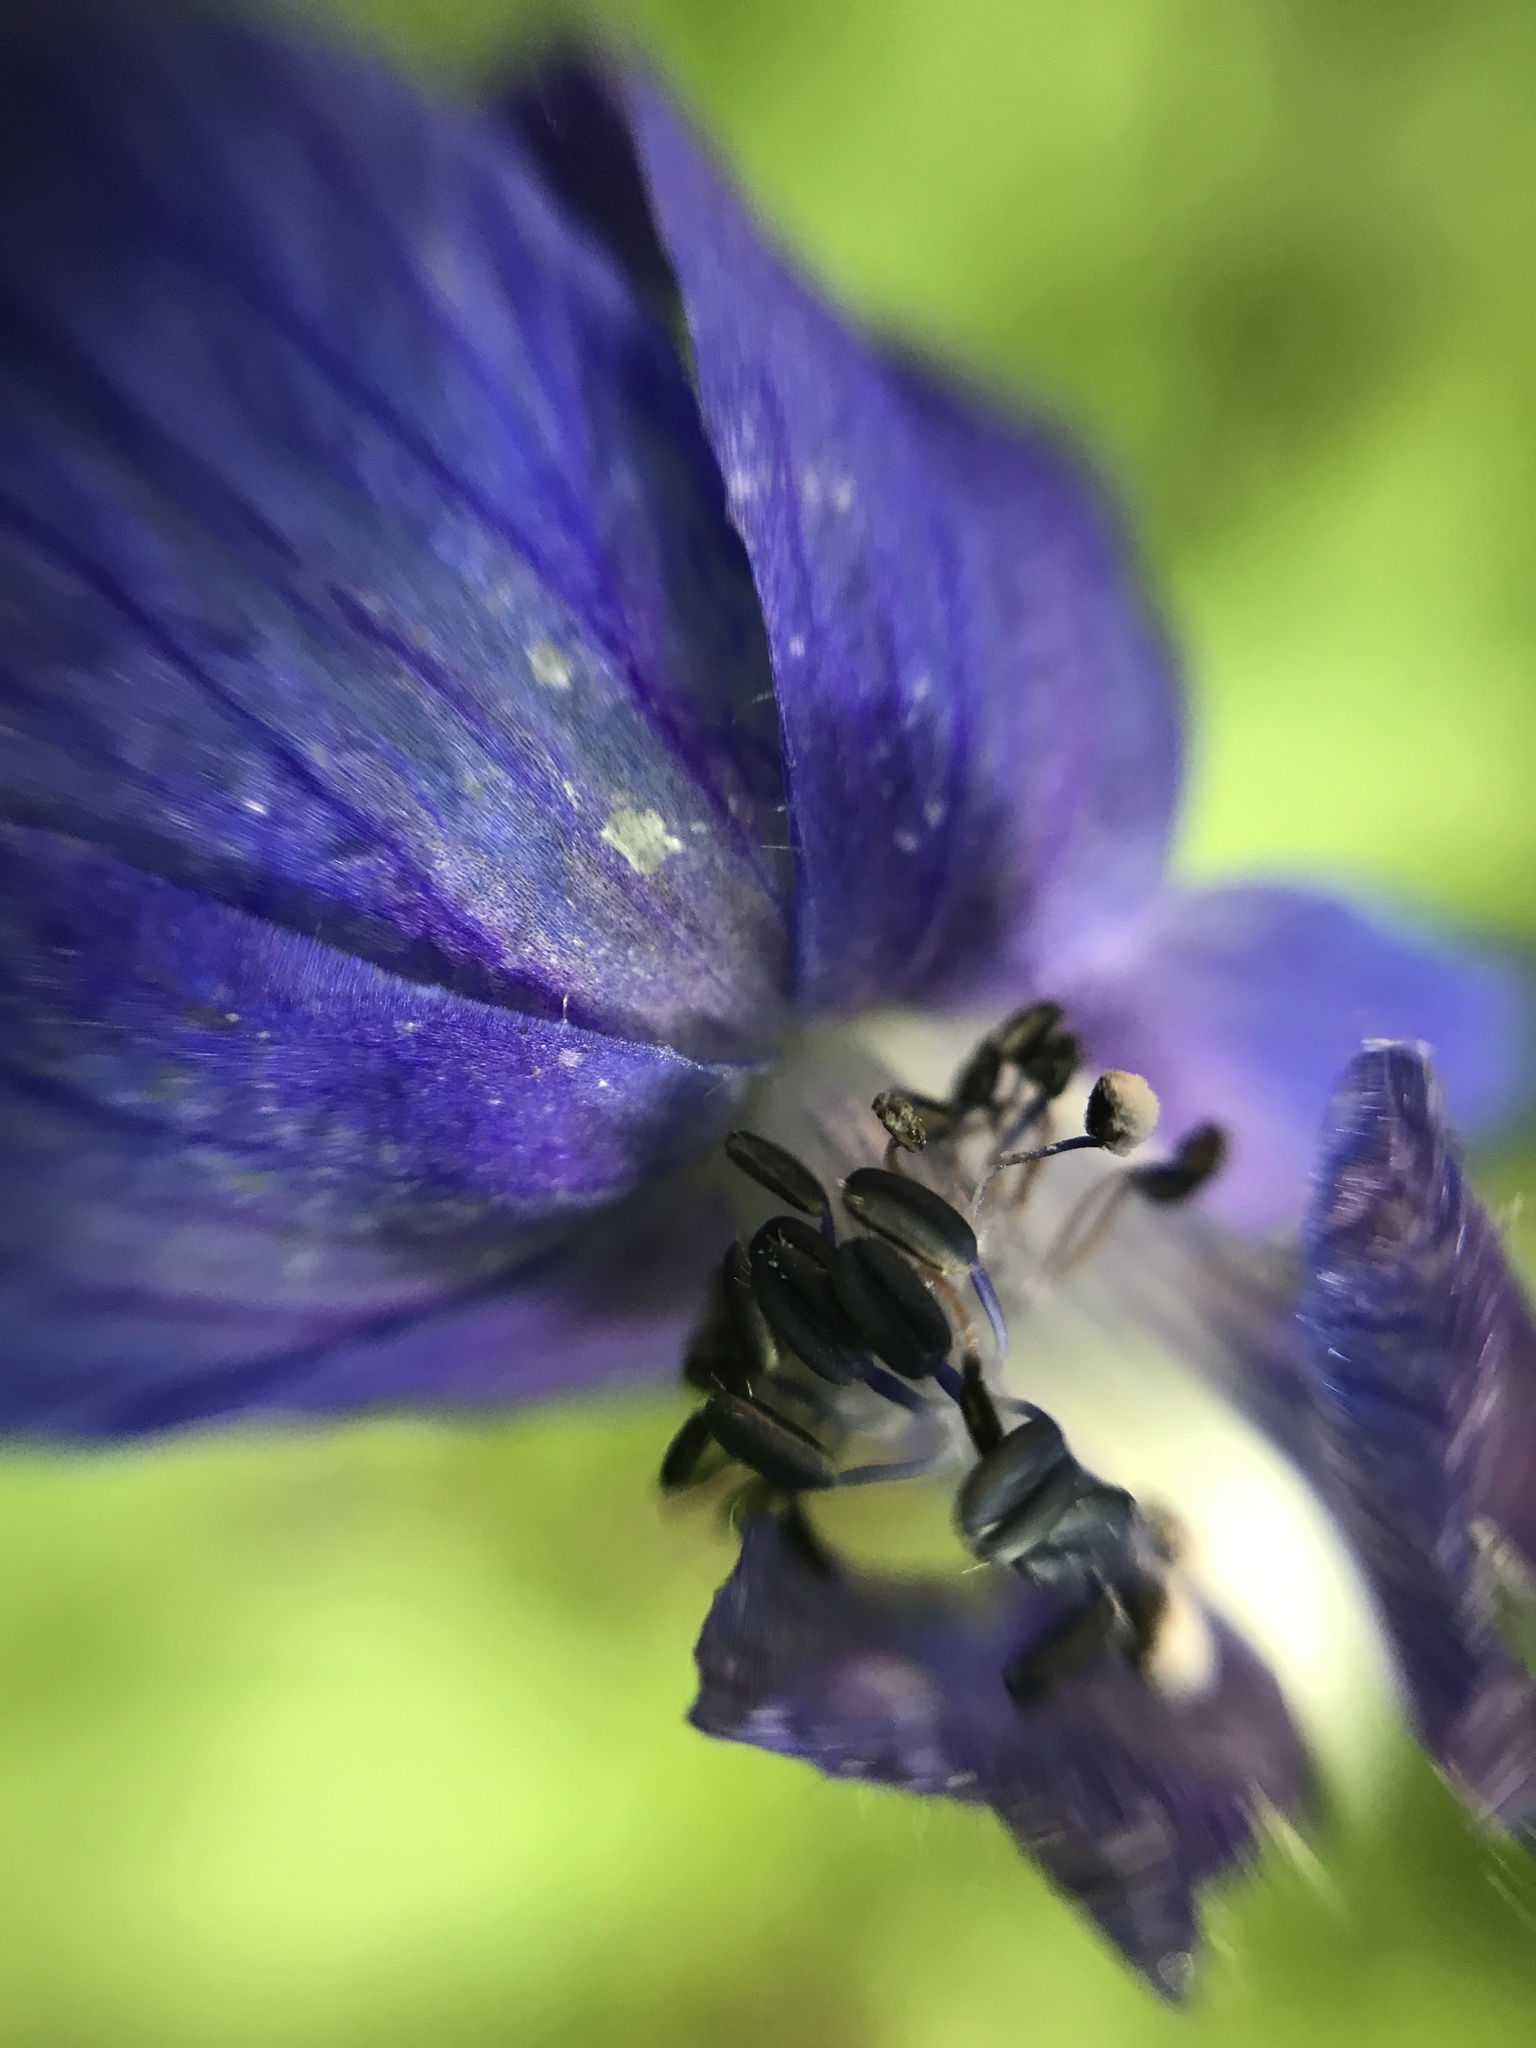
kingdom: Plantae
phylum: Tracheophyta
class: Magnoliopsida
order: Ranunculales
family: Ranunculaceae
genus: Delphinium
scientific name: Delphinium trolliifolium
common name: Cow-poison
